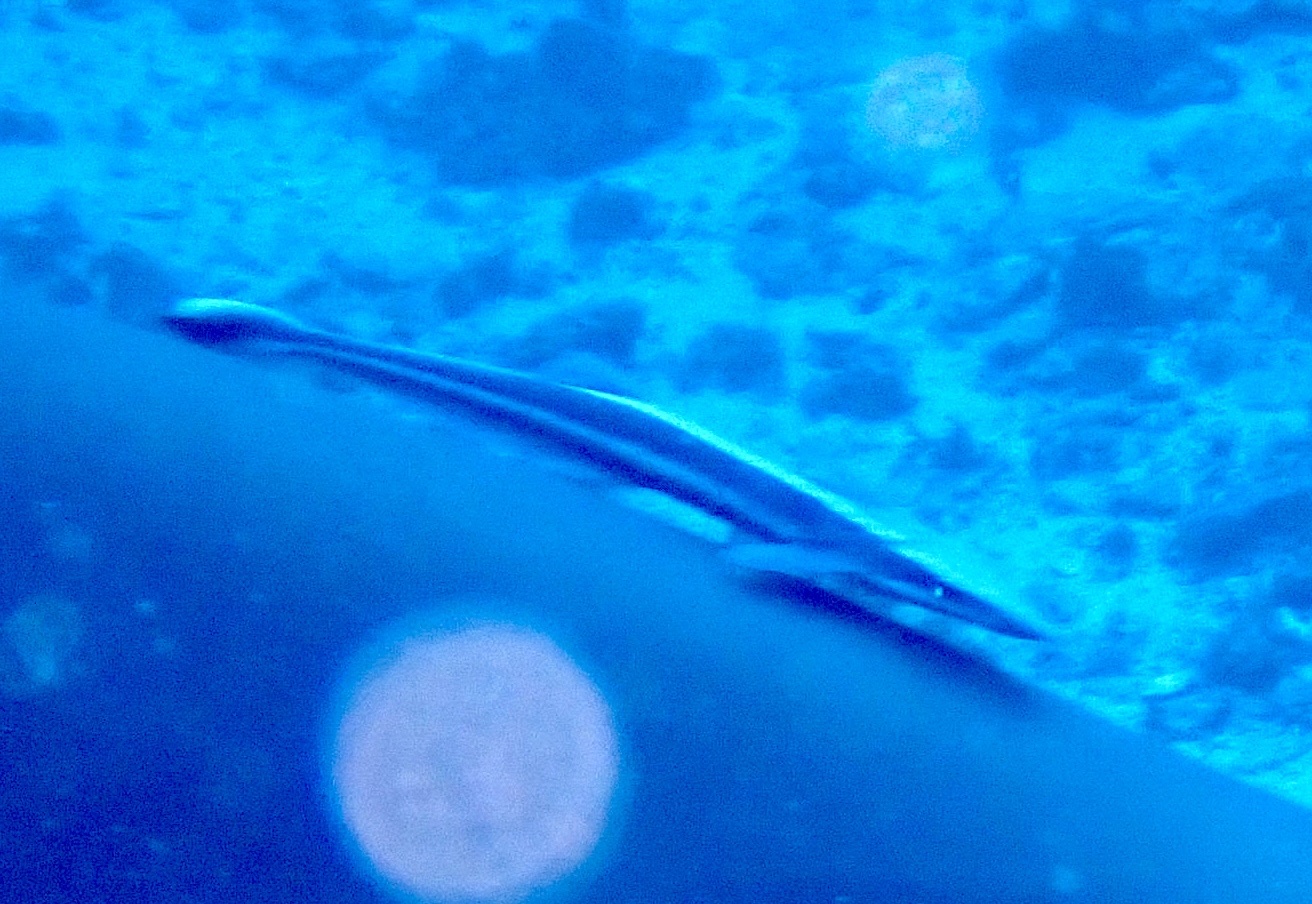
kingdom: Animalia
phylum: Chordata
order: Perciformes
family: Echeneidae
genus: Echeneis
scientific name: Echeneis naucrates
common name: Sharksucker
